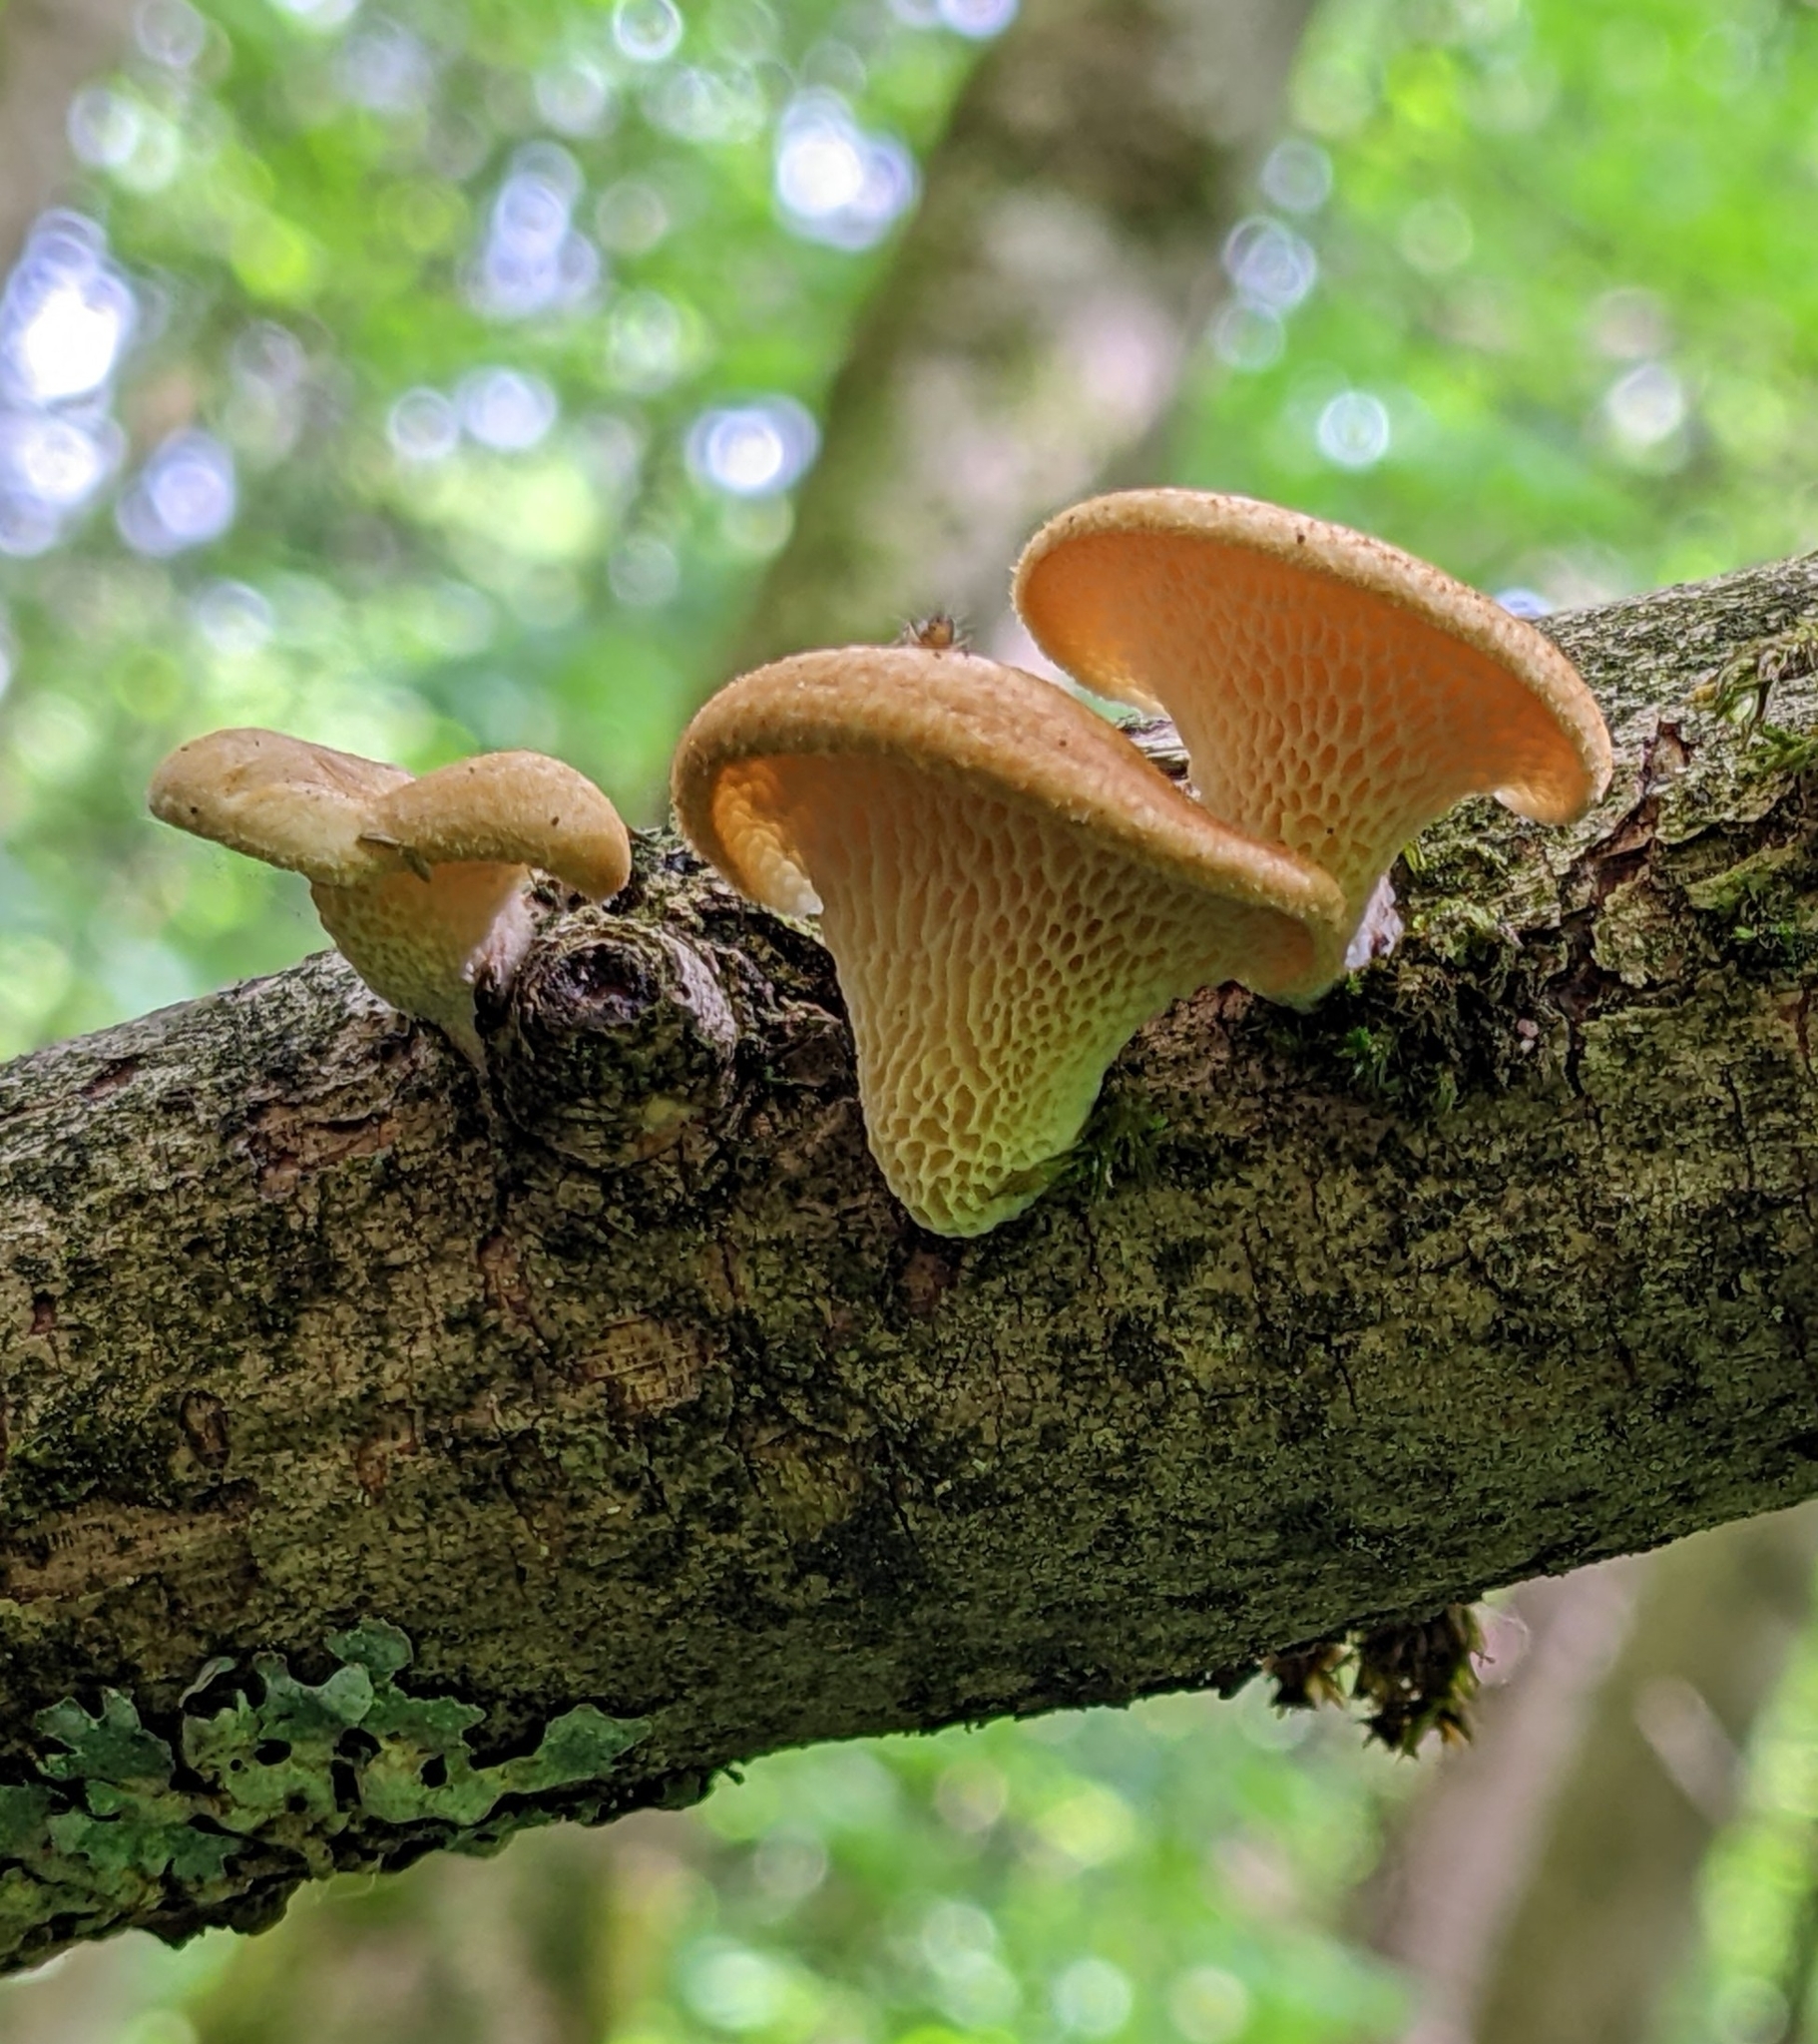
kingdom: Fungi
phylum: Basidiomycota
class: Agaricomycetes
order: Polyporales
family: Polyporaceae
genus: Neofavolus
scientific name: Neofavolus alveolaris
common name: Hexagonal-pored polypore
